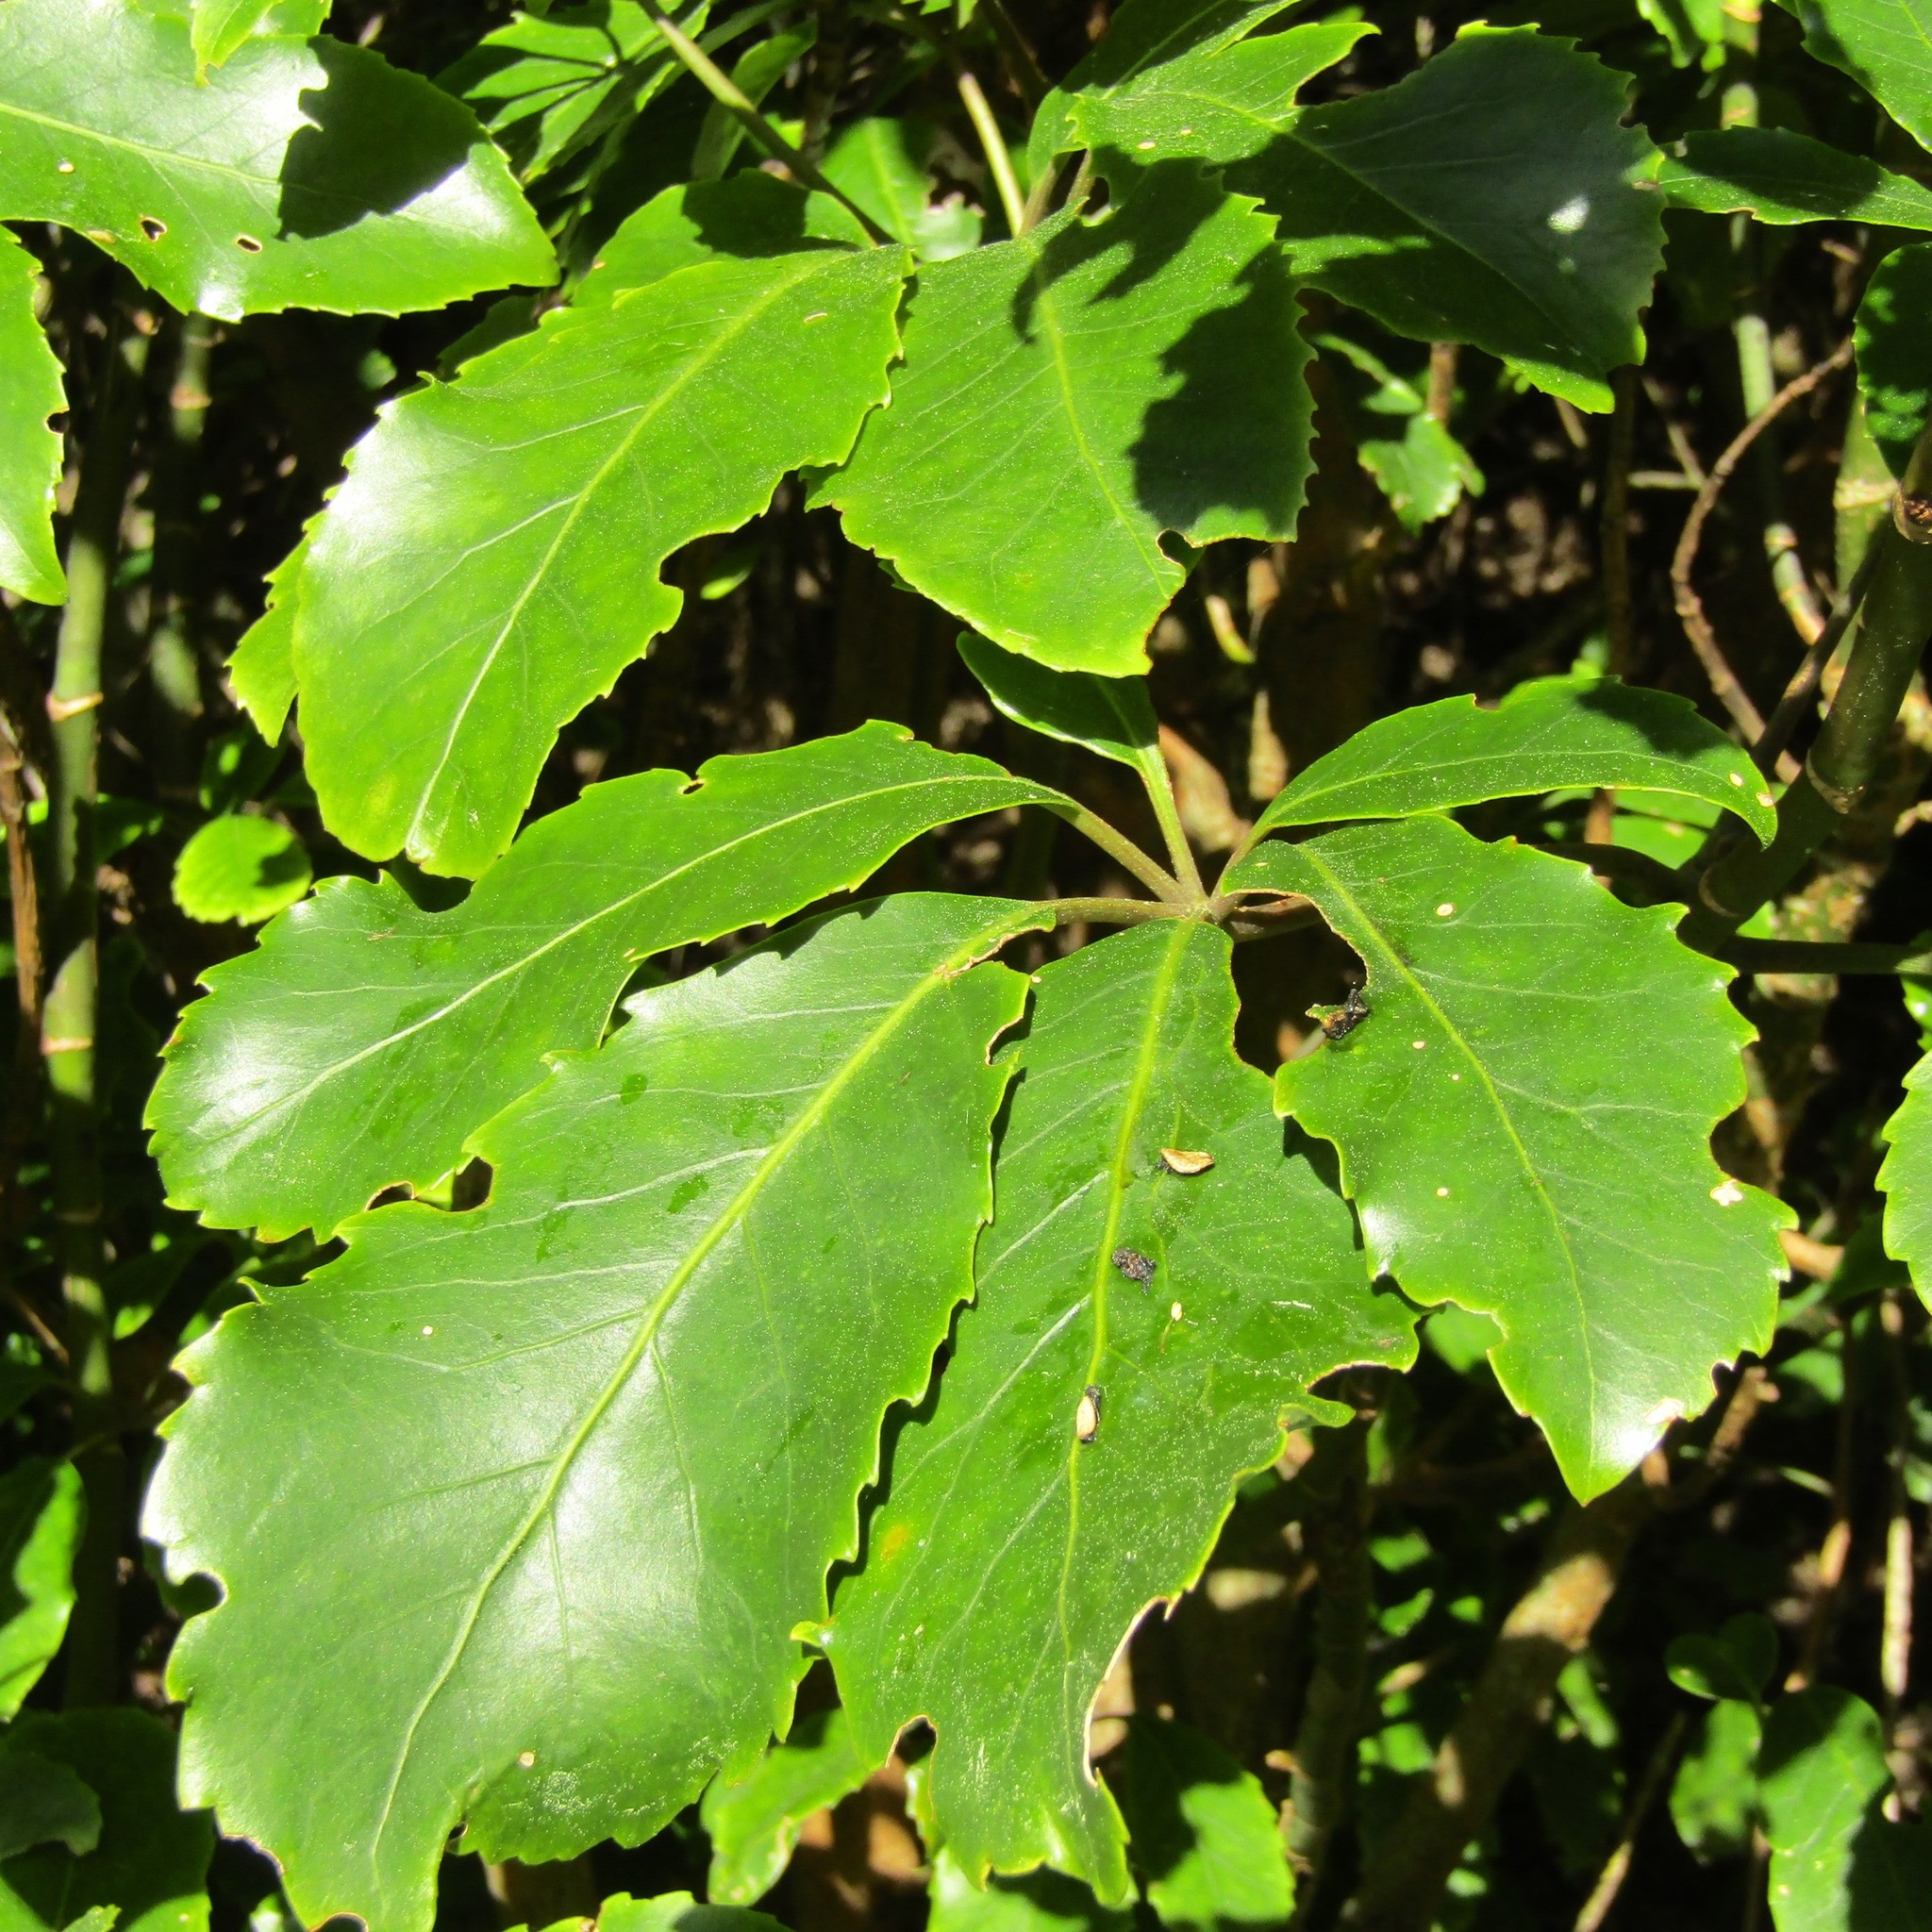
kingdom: Plantae
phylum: Tracheophyta
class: Magnoliopsida
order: Apiales
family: Araliaceae
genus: Neopanax
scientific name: Neopanax arboreus
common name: Five-fingers
